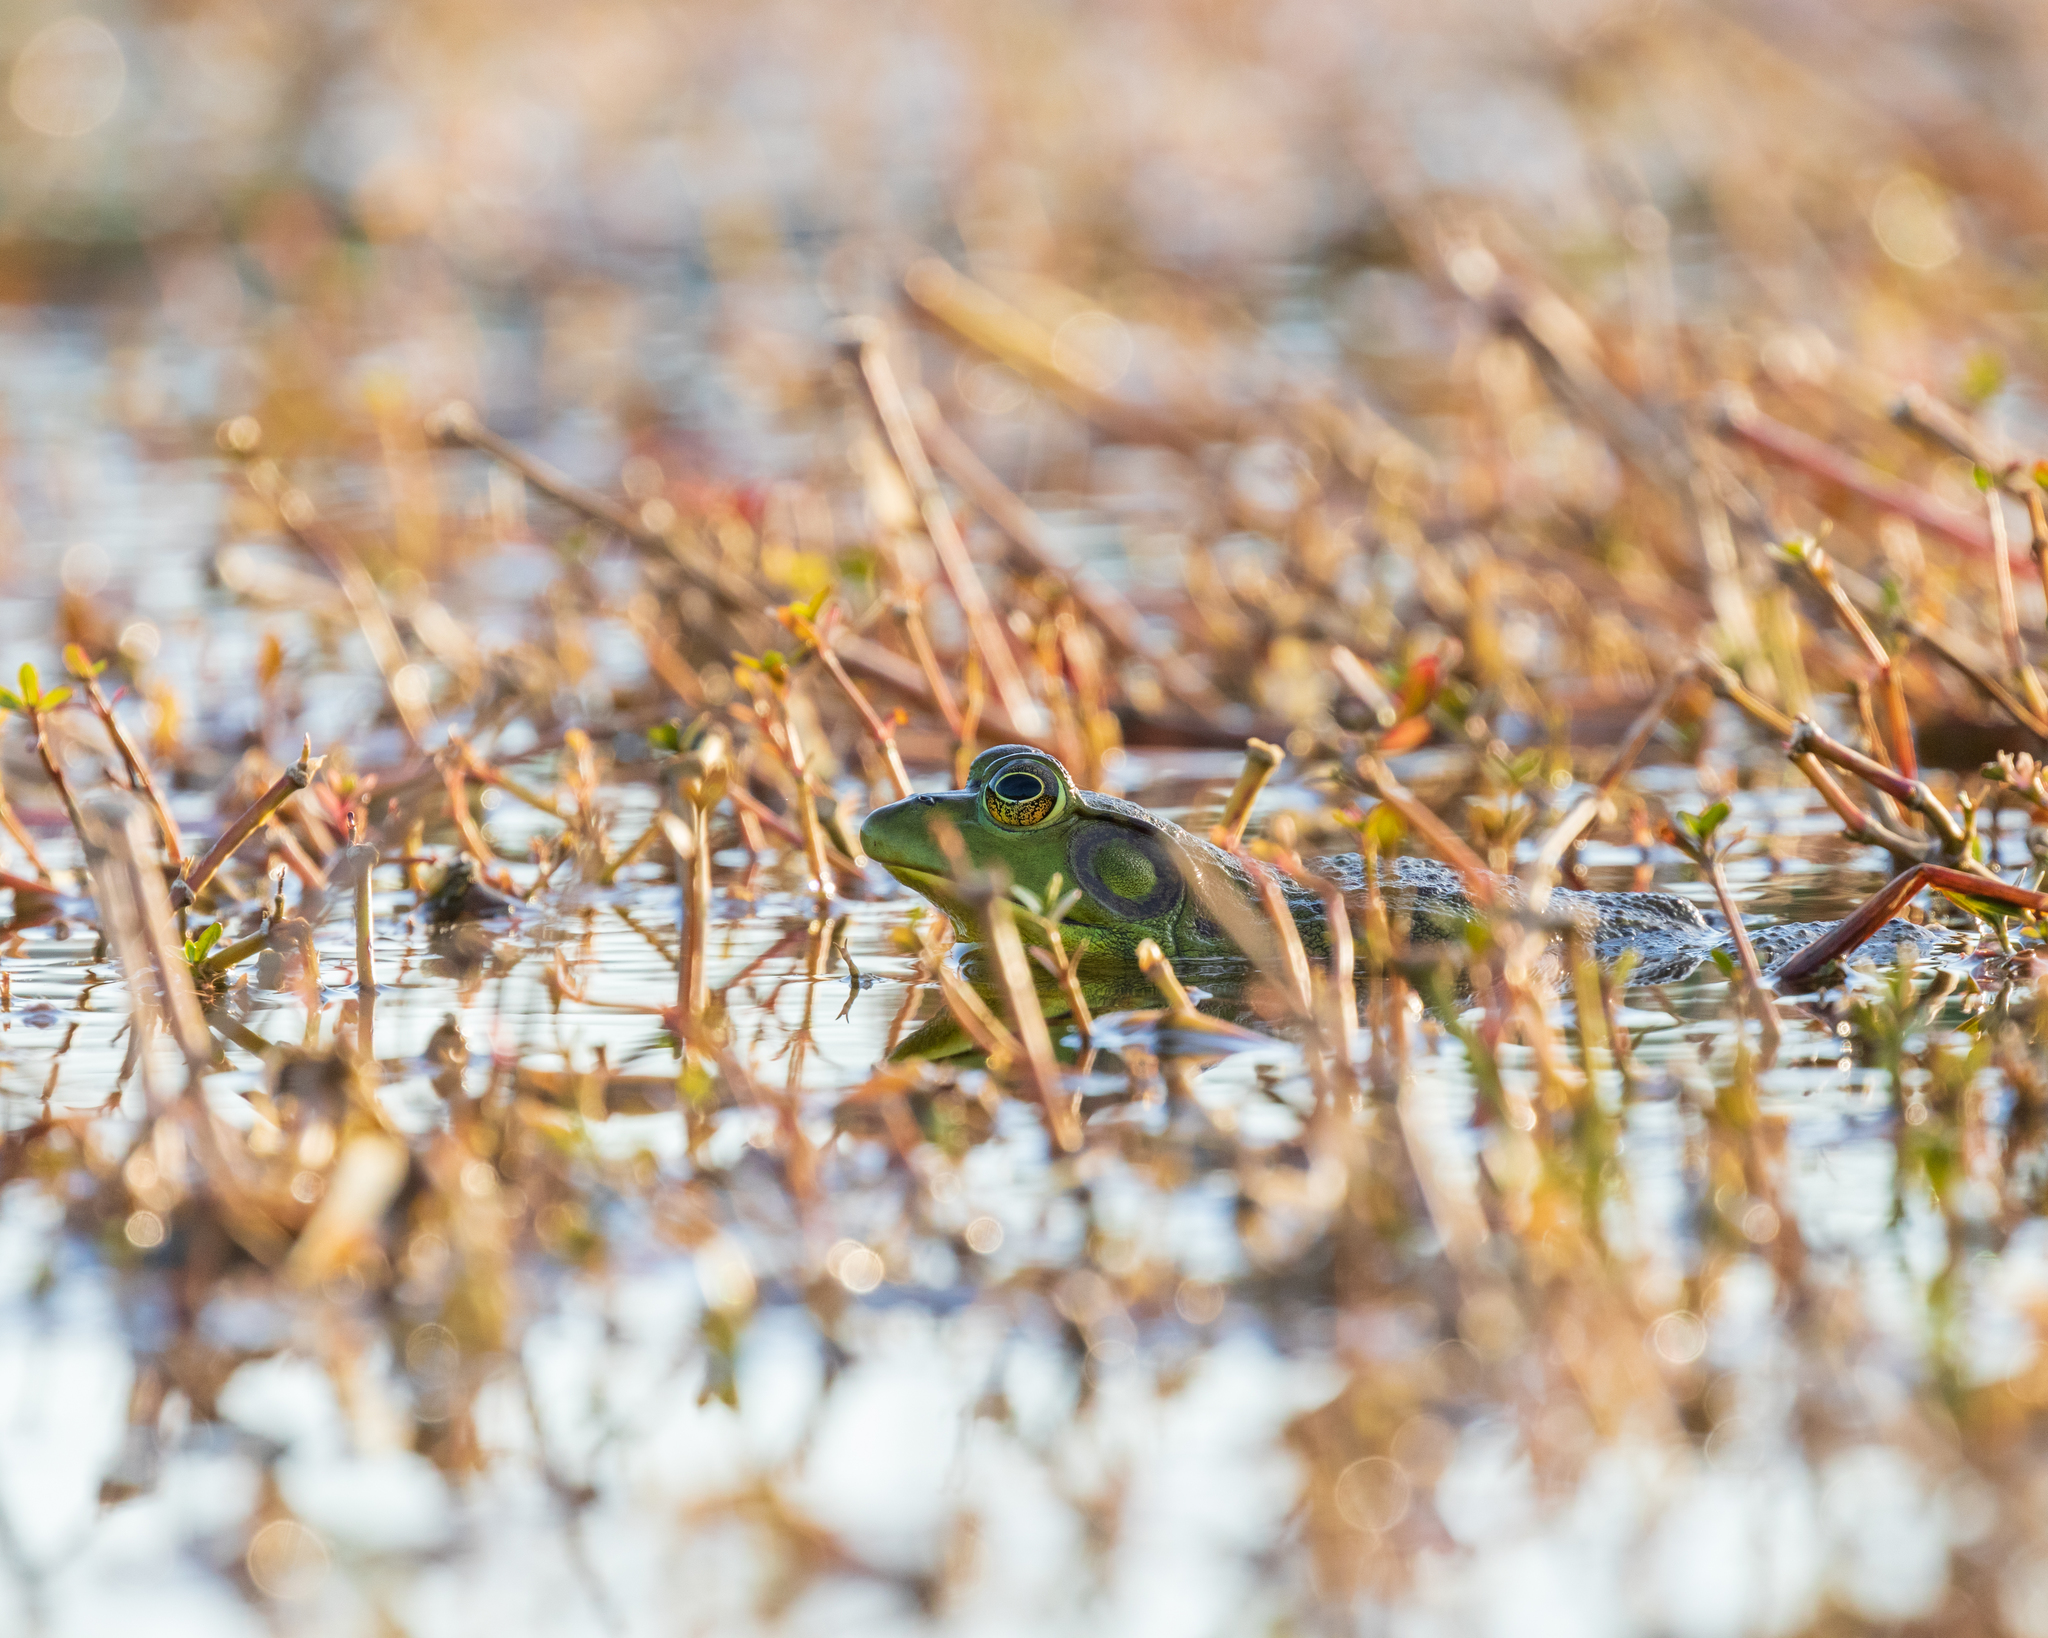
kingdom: Animalia
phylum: Chordata
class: Amphibia
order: Anura
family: Ranidae
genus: Lithobates
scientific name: Lithobates catesbeianus
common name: American bullfrog
